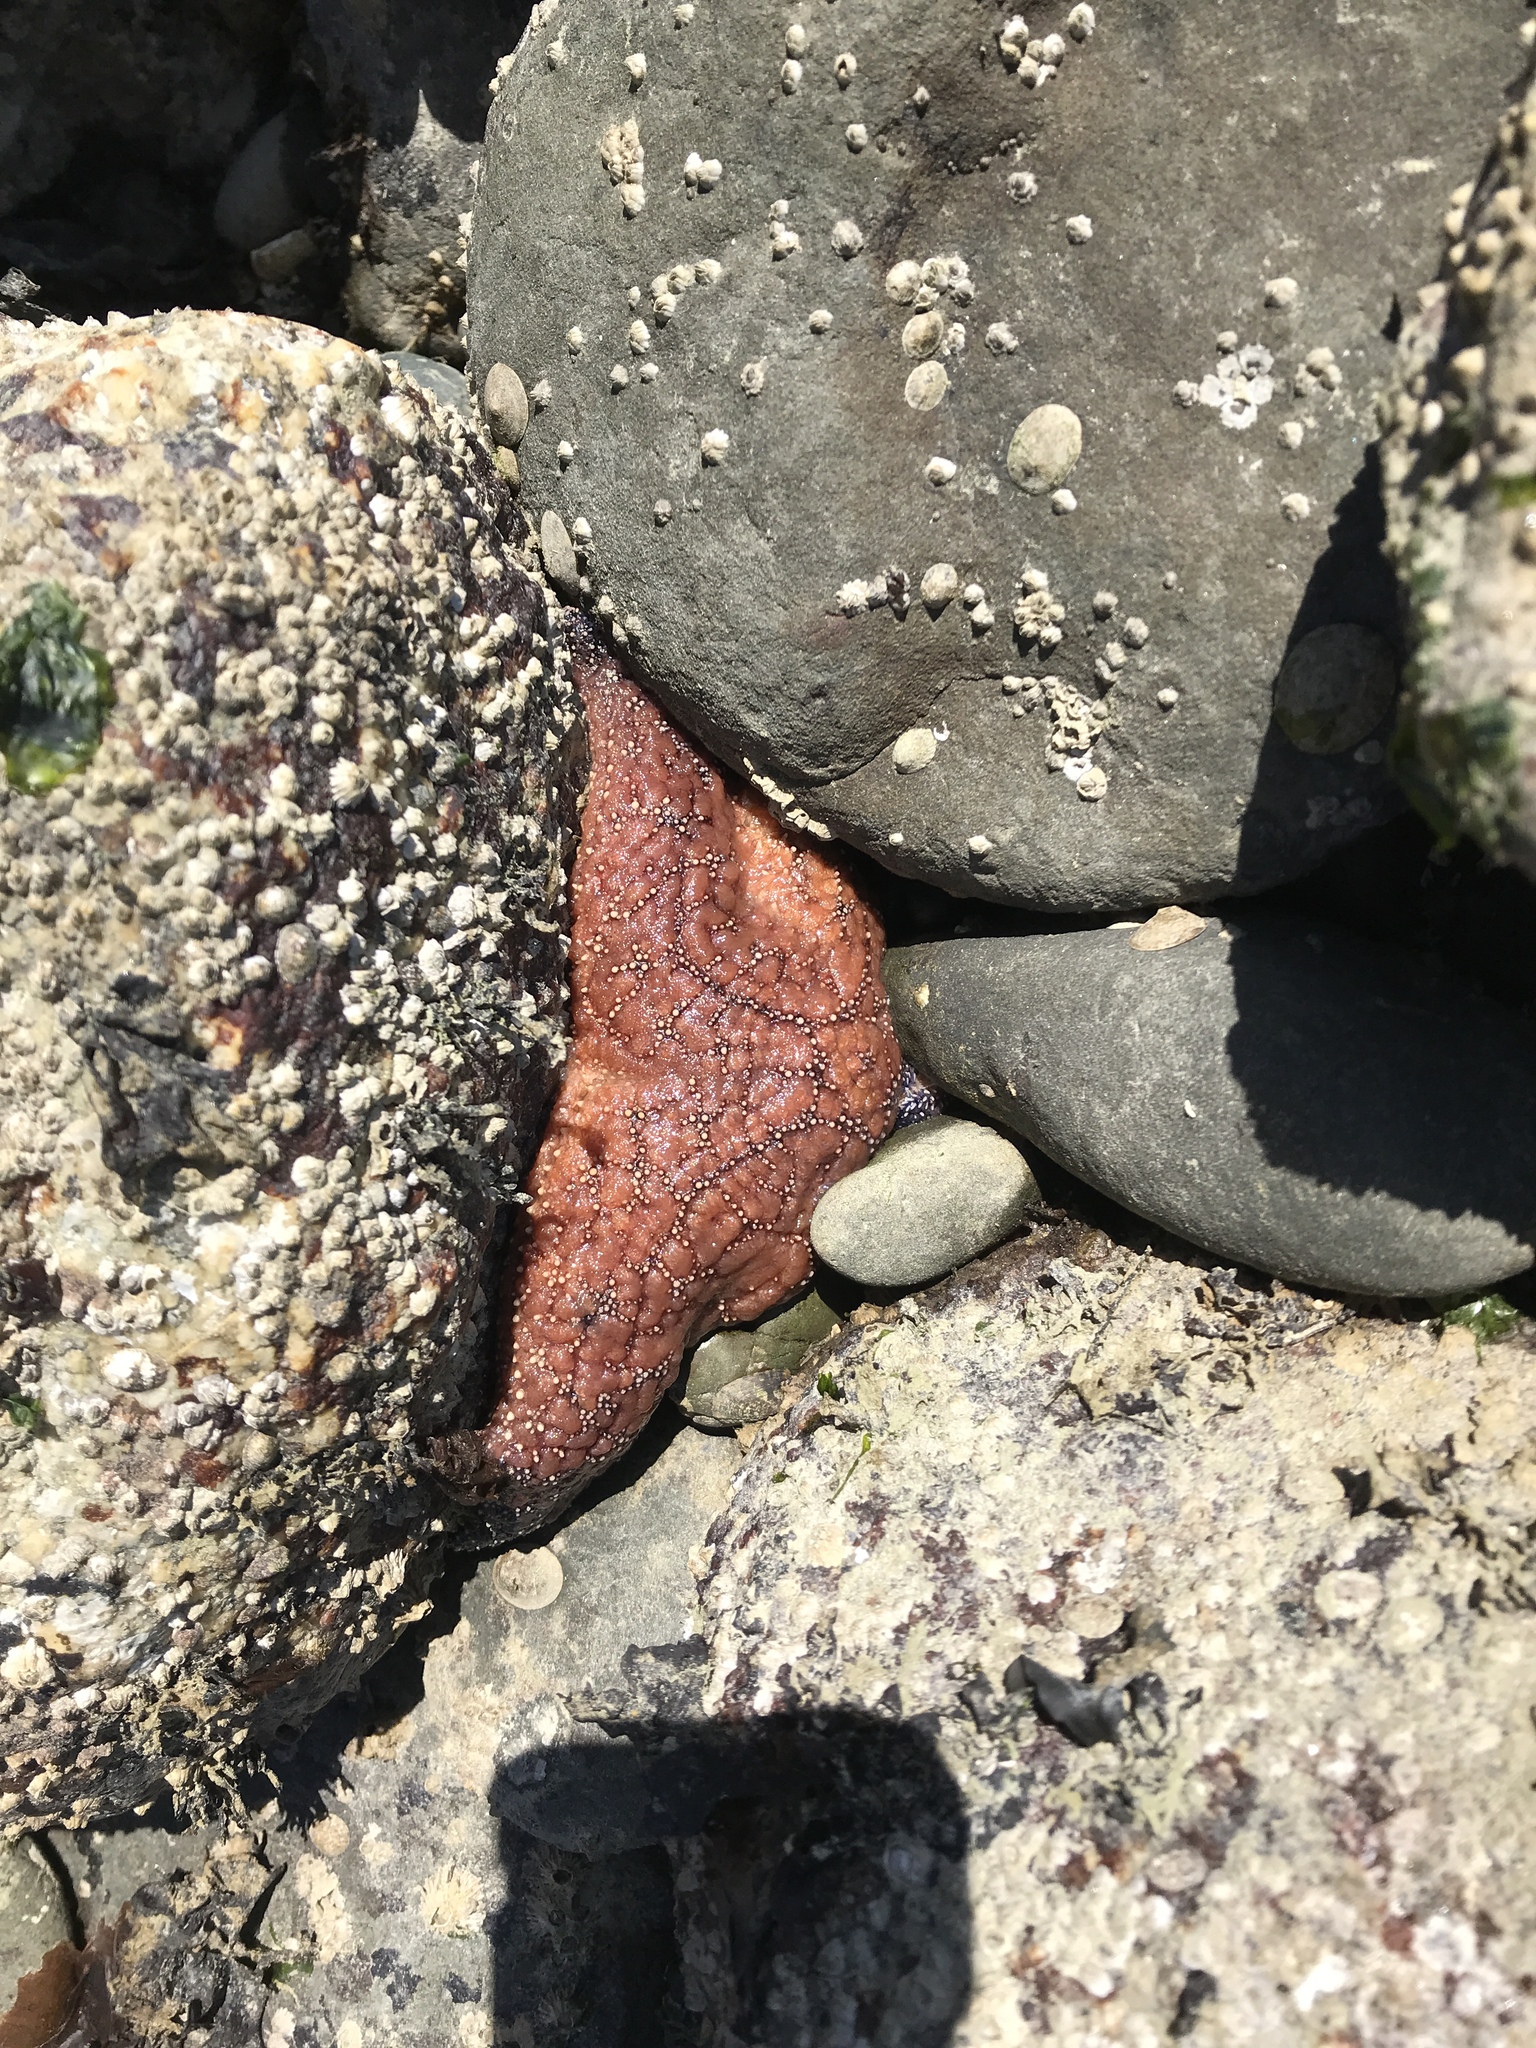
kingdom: Animalia
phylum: Echinodermata
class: Asteroidea
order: Forcipulatida
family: Asteriidae
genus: Pisaster
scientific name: Pisaster ochraceus
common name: Ochre stars
